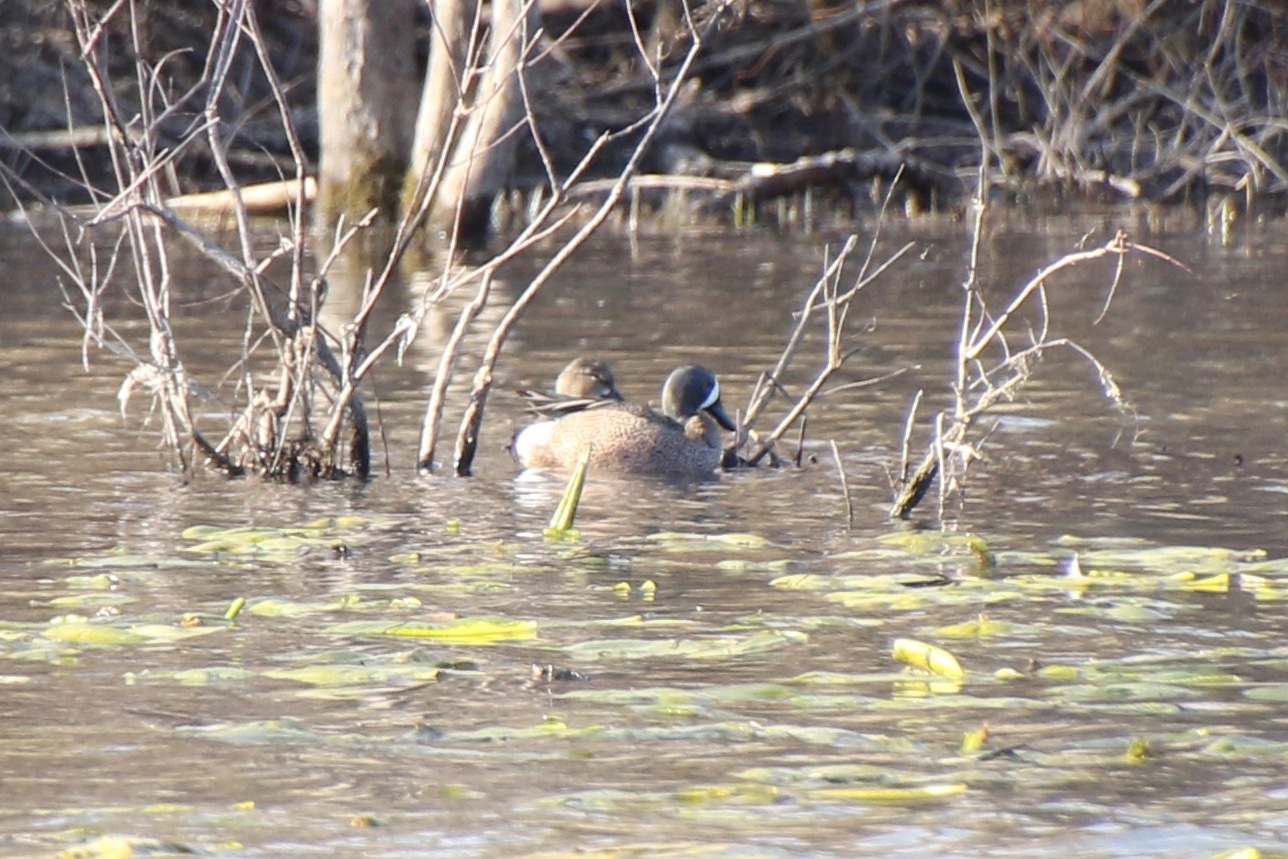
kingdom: Animalia
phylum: Chordata
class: Aves
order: Anseriformes
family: Anatidae
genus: Spatula
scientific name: Spatula discors
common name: Blue-winged teal
